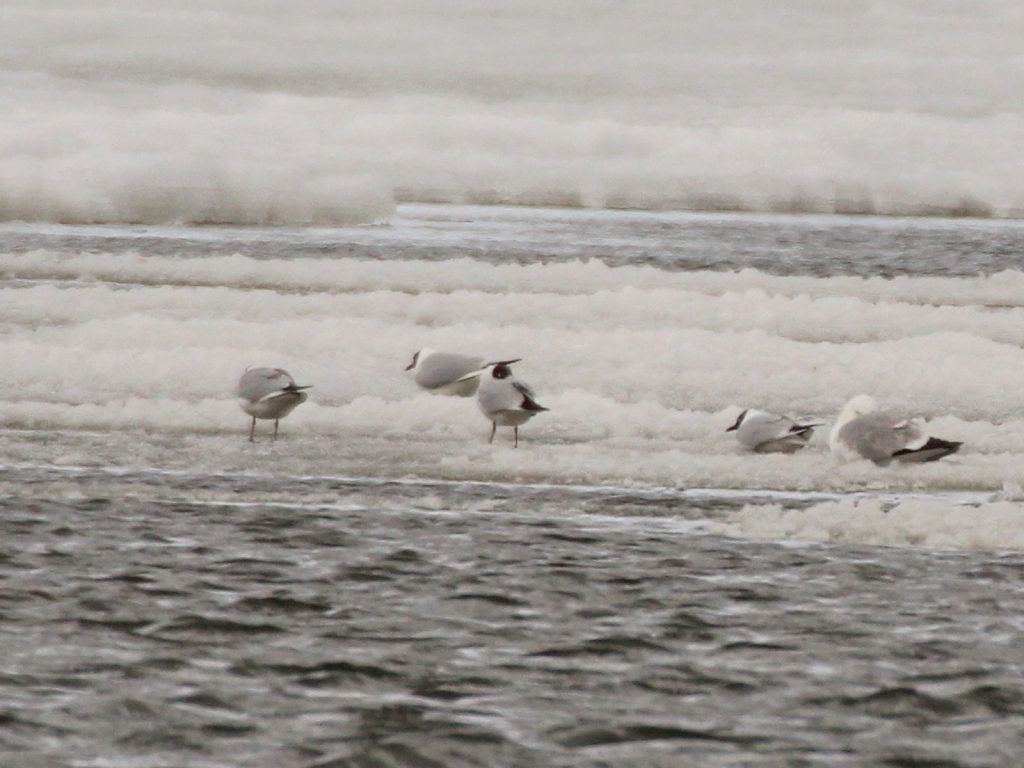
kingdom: Animalia
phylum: Chordata
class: Aves
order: Charadriiformes
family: Laridae
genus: Chroicocephalus
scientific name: Chroicocephalus ridibundus
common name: Black-headed gull
